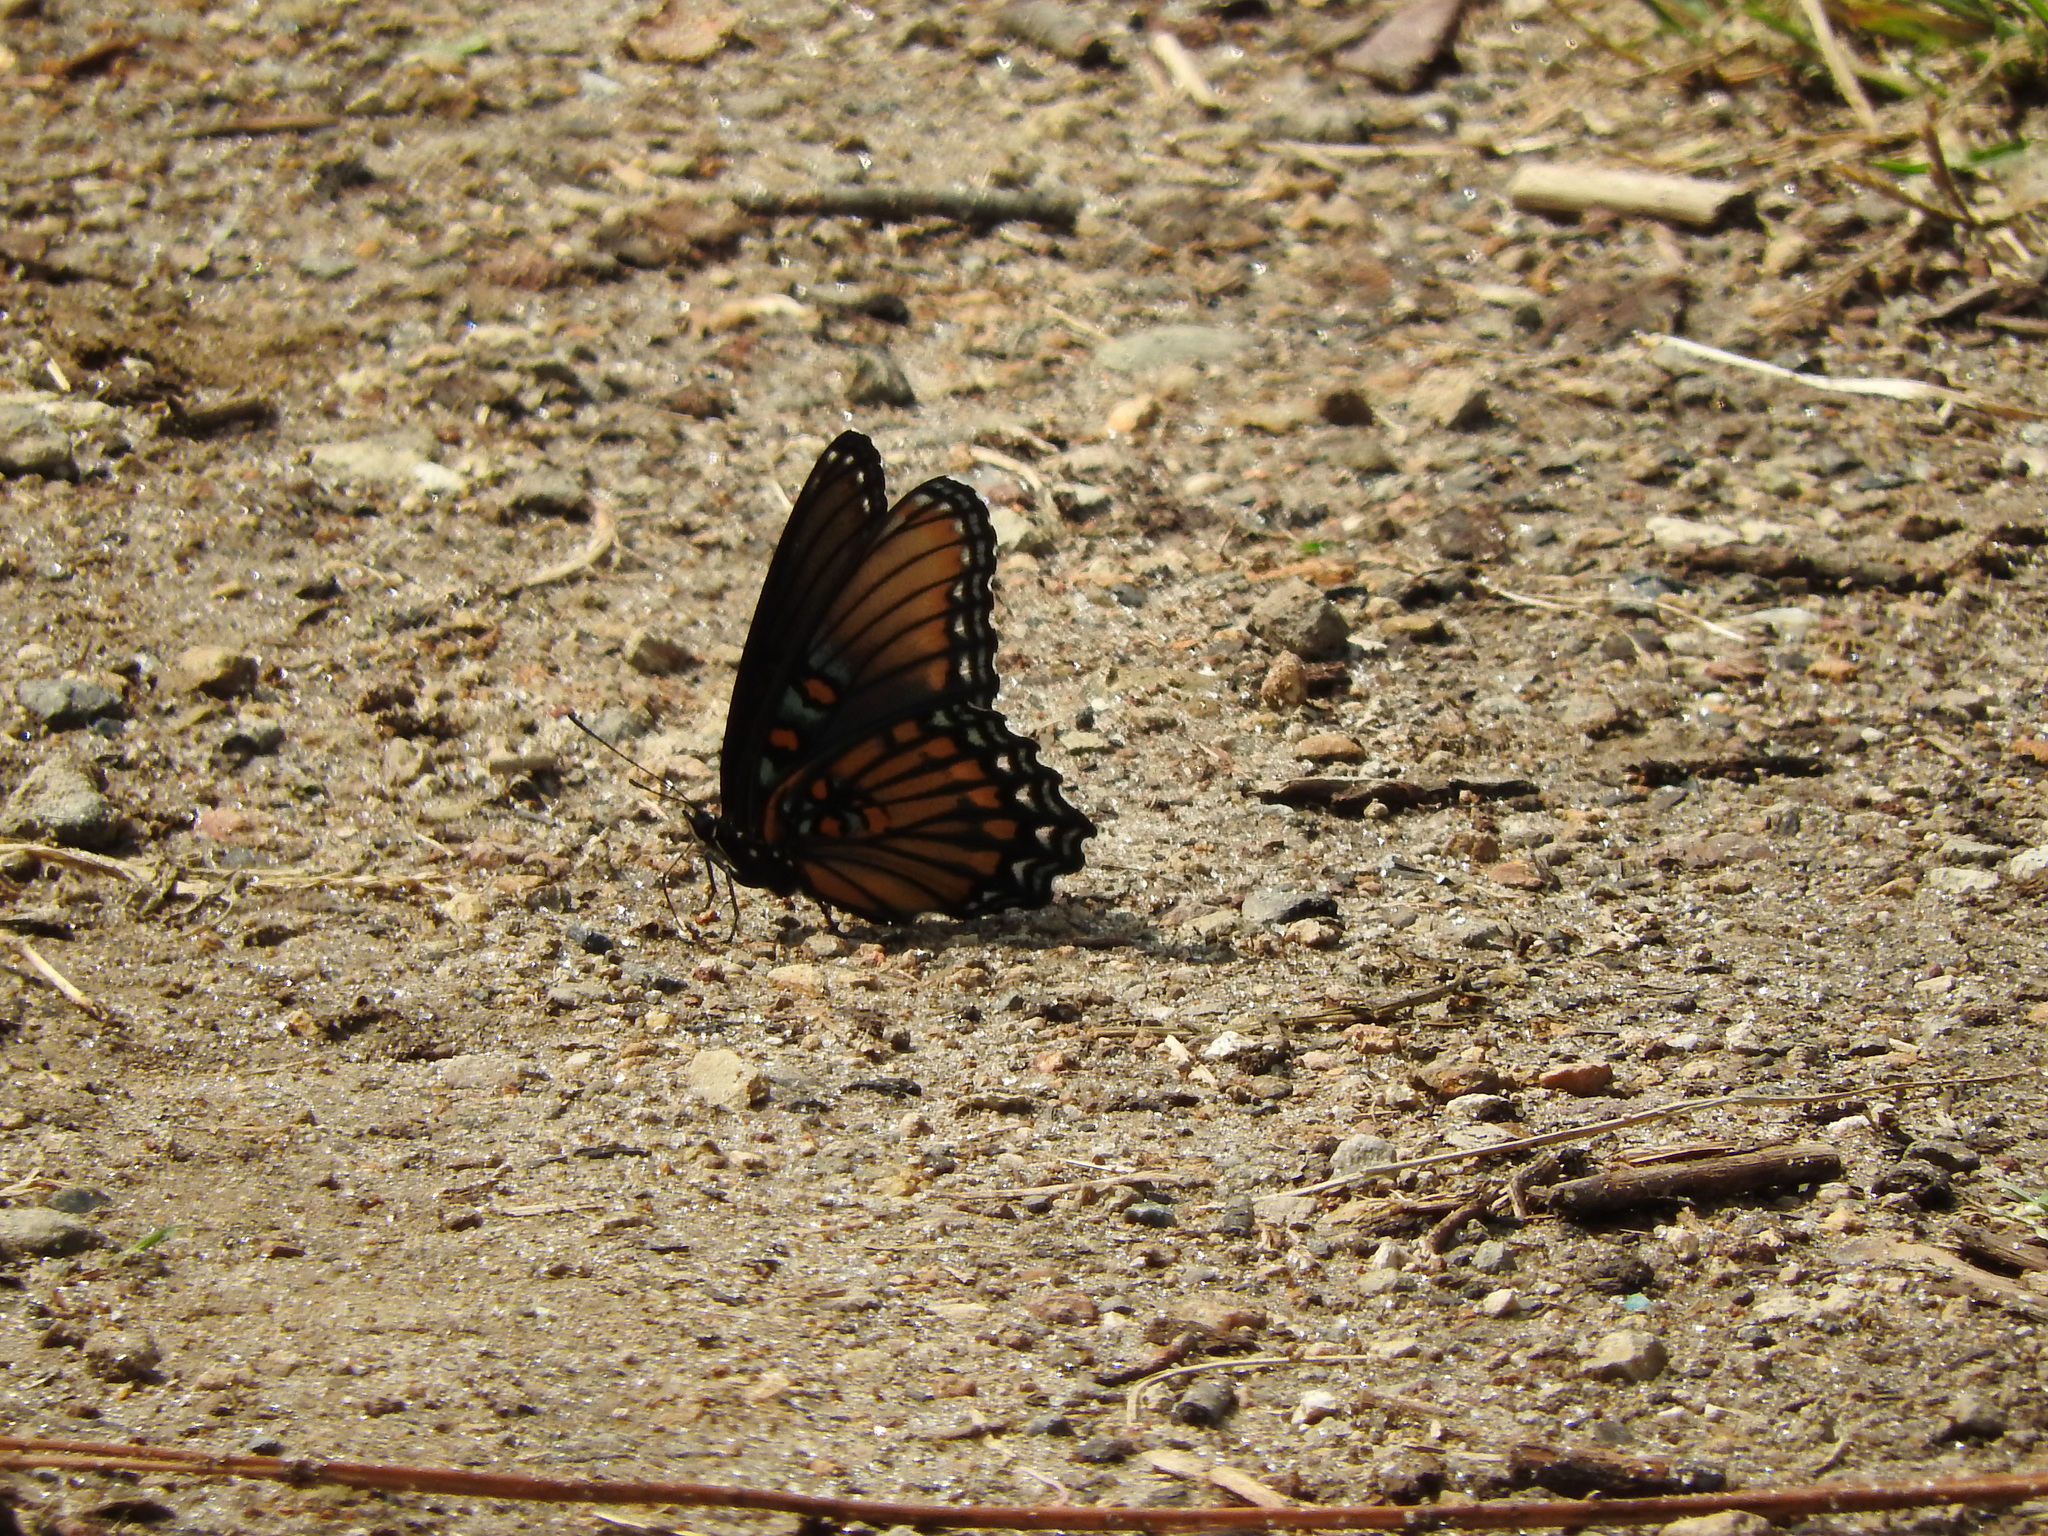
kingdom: Animalia
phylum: Arthropoda
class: Insecta
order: Lepidoptera
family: Nymphalidae
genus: Limenitis
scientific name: Limenitis arthemis
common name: Red-spotted admiral
